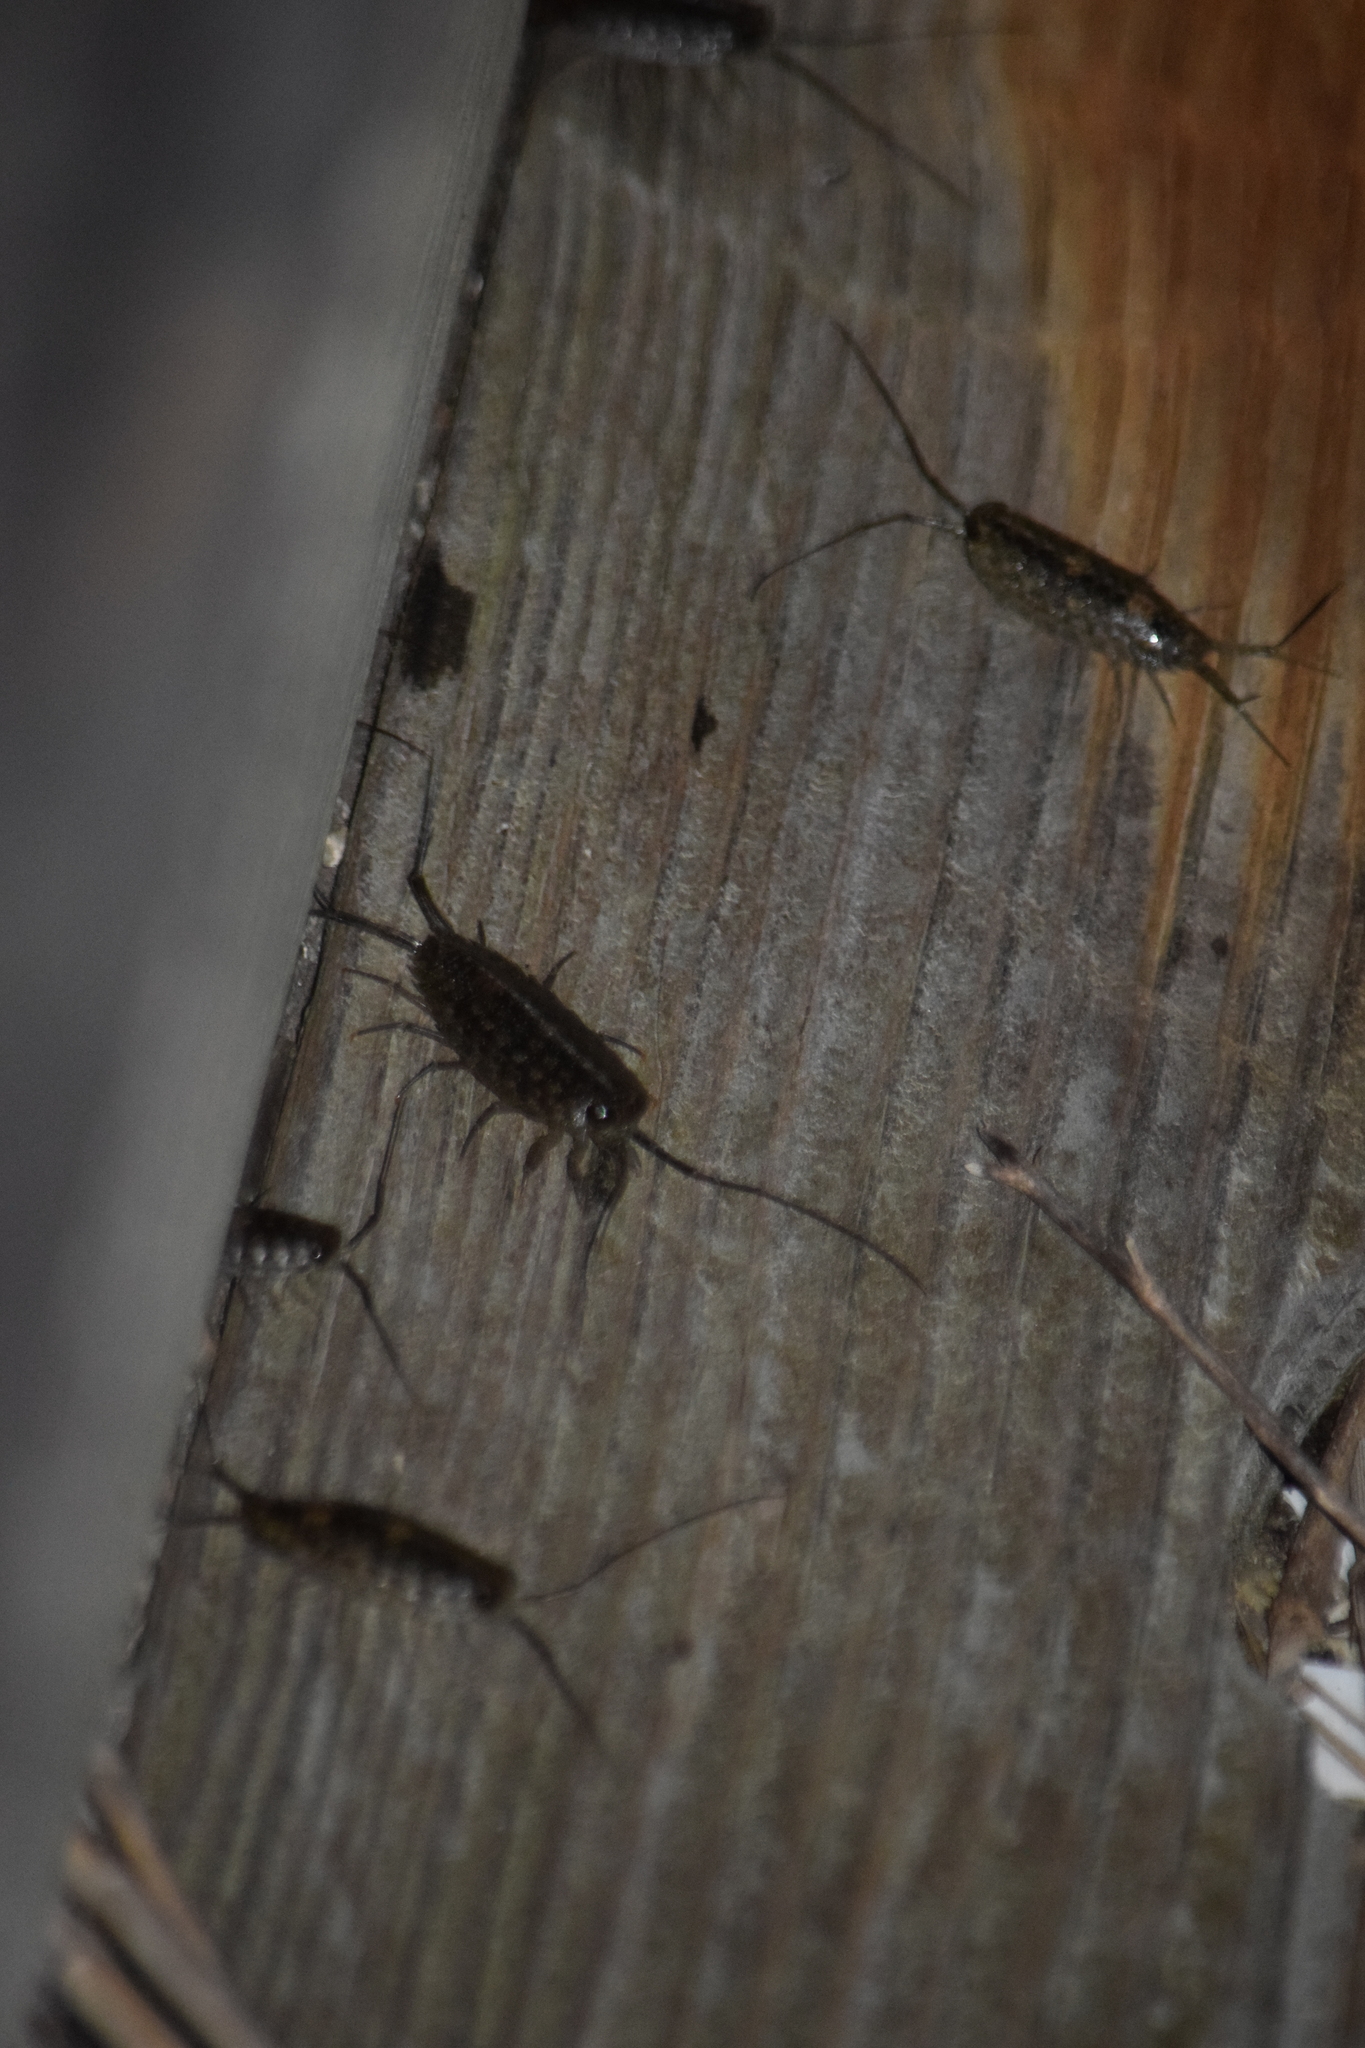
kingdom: Animalia
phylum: Arthropoda
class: Malacostraca
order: Isopoda
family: Ligiidae
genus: Ligia
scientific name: Ligia exotica
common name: Wharf roach
